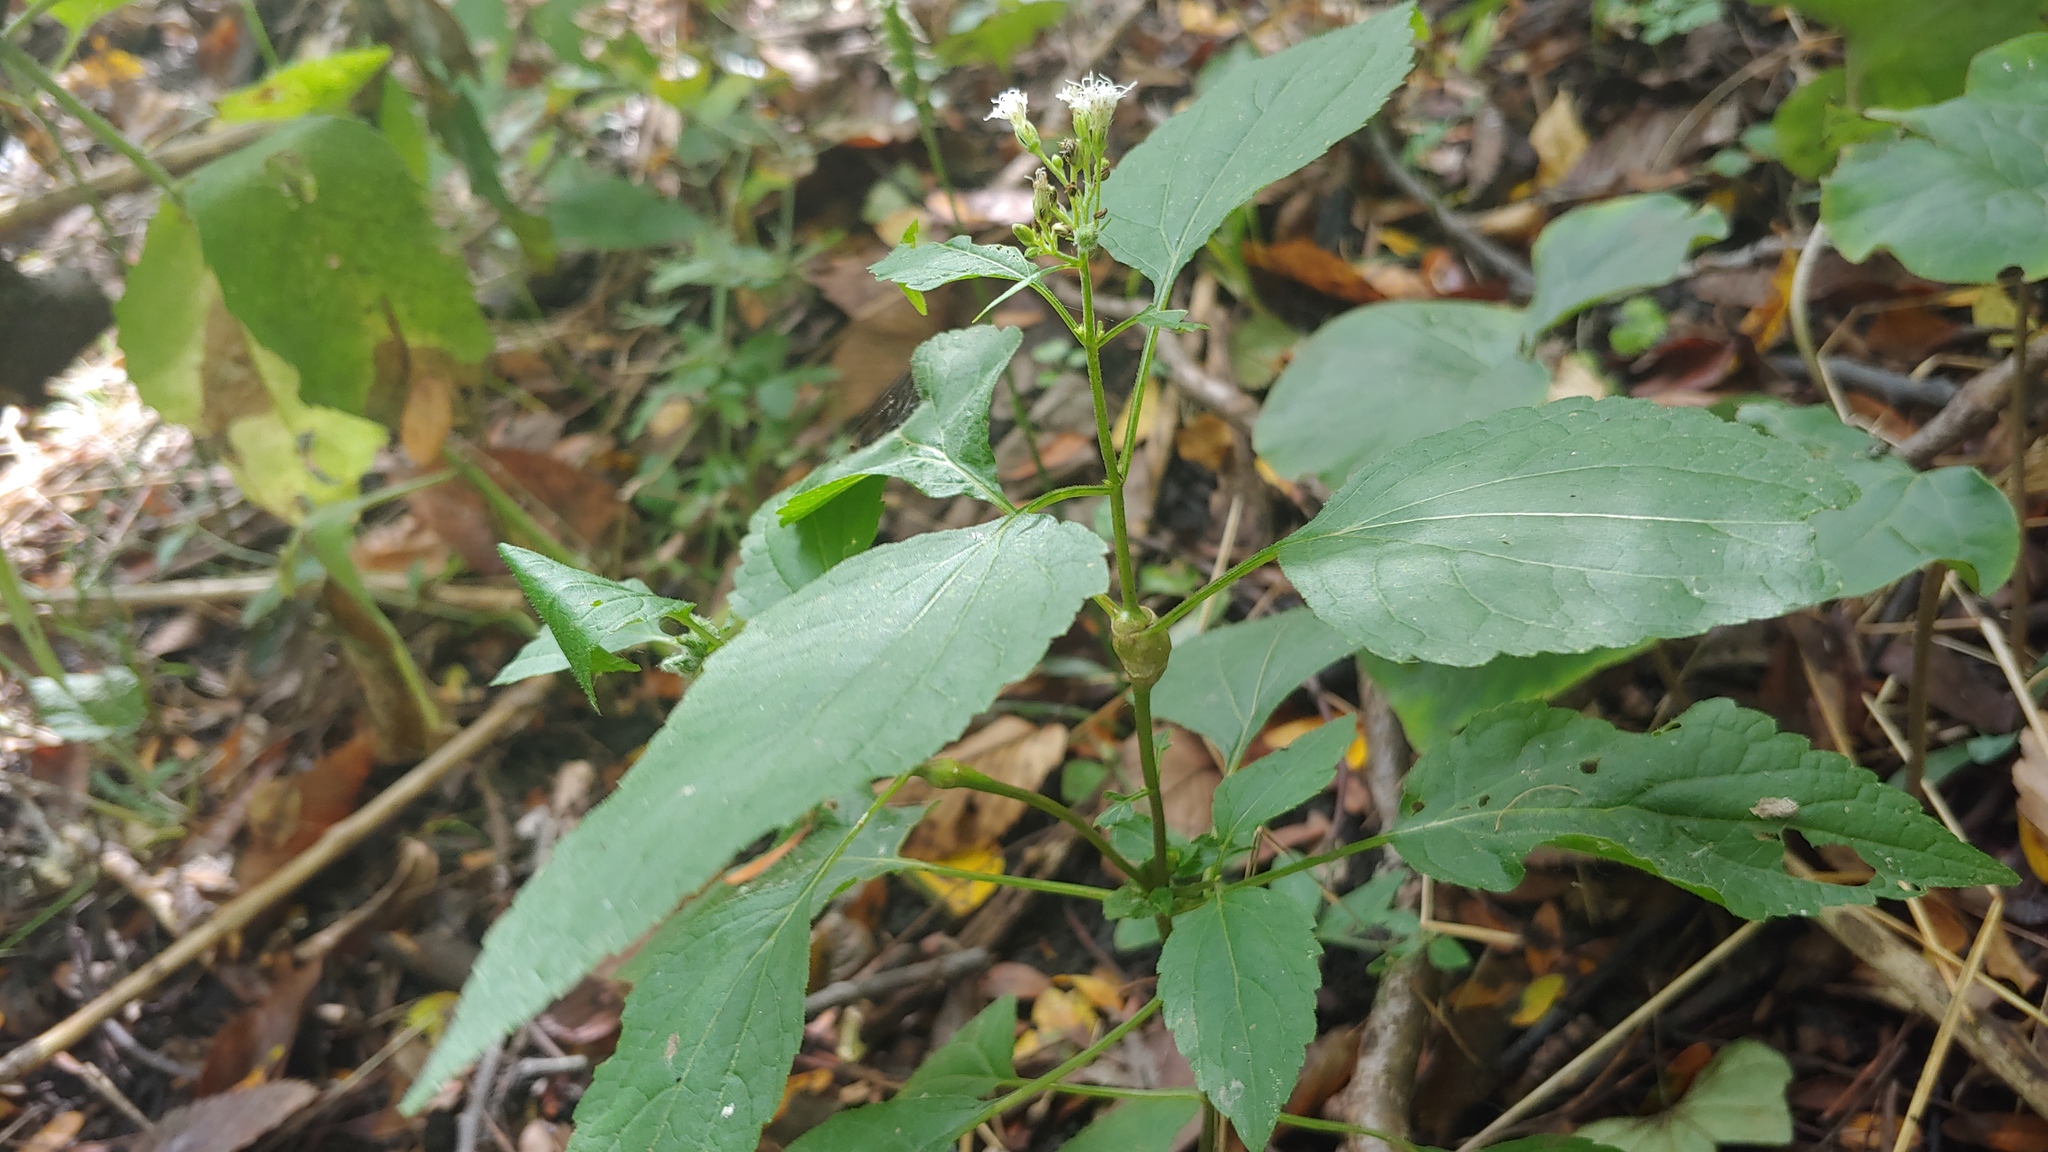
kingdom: Animalia
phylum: Arthropoda
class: Insecta
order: Diptera
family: Cecidomyiidae
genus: Neolasioptera
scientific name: Neolasioptera eupatorii
